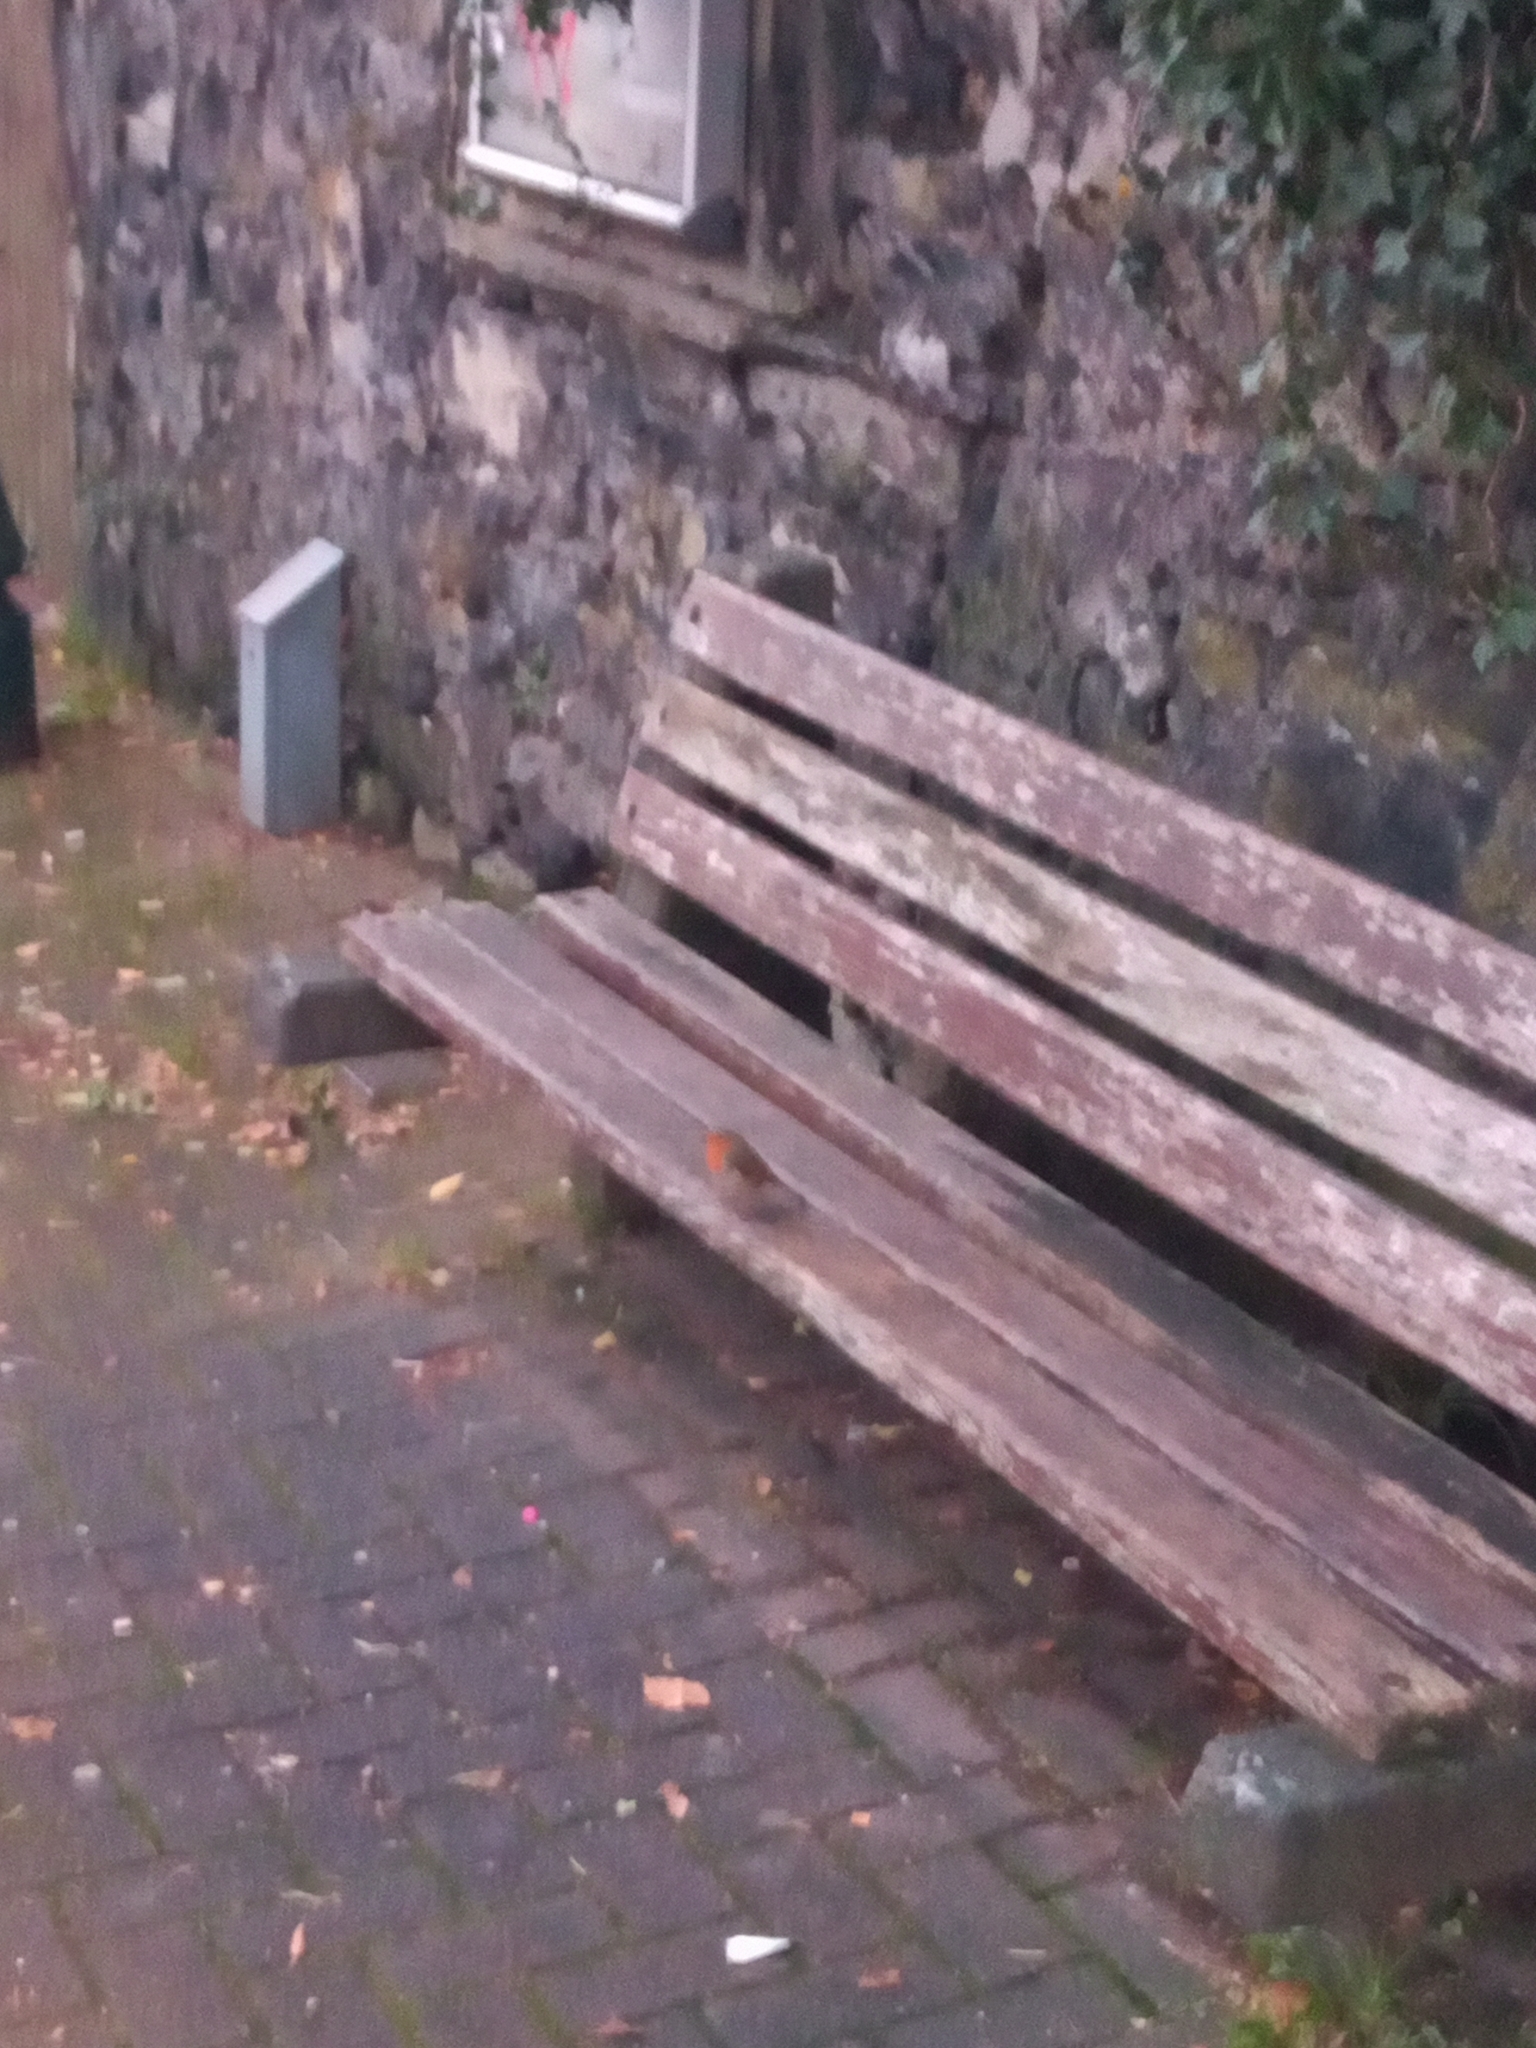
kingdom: Animalia
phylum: Chordata
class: Aves
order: Passeriformes
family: Muscicapidae
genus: Erithacus
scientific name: Erithacus rubecula
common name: European robin
